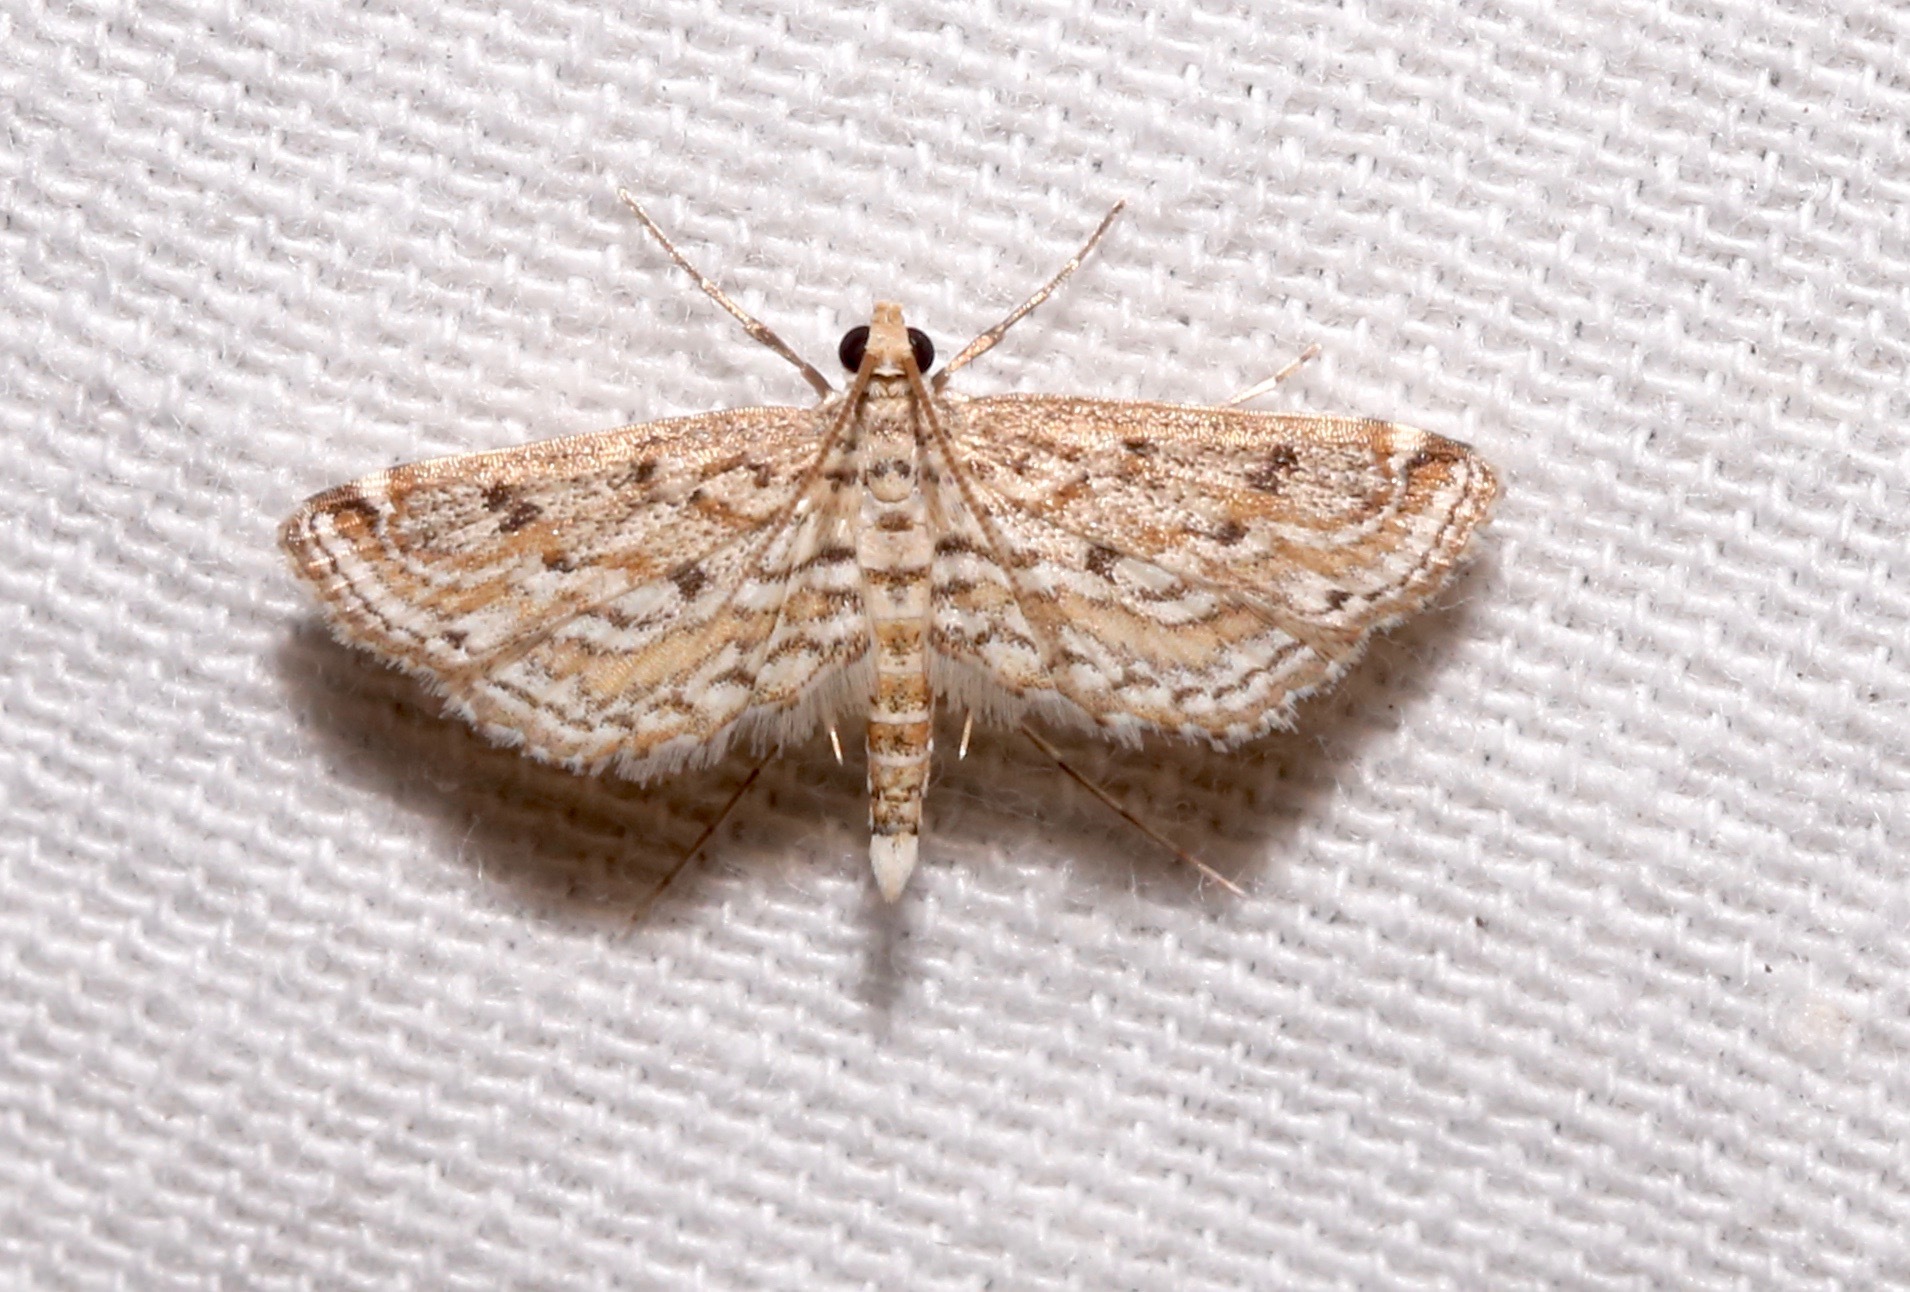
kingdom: Animalia
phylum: Arthropoda
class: Insecta
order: Lepidoptera
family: Crambidae
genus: Parapoynx
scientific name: Parapoynx allionealis
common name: Bladderwort casemaker
